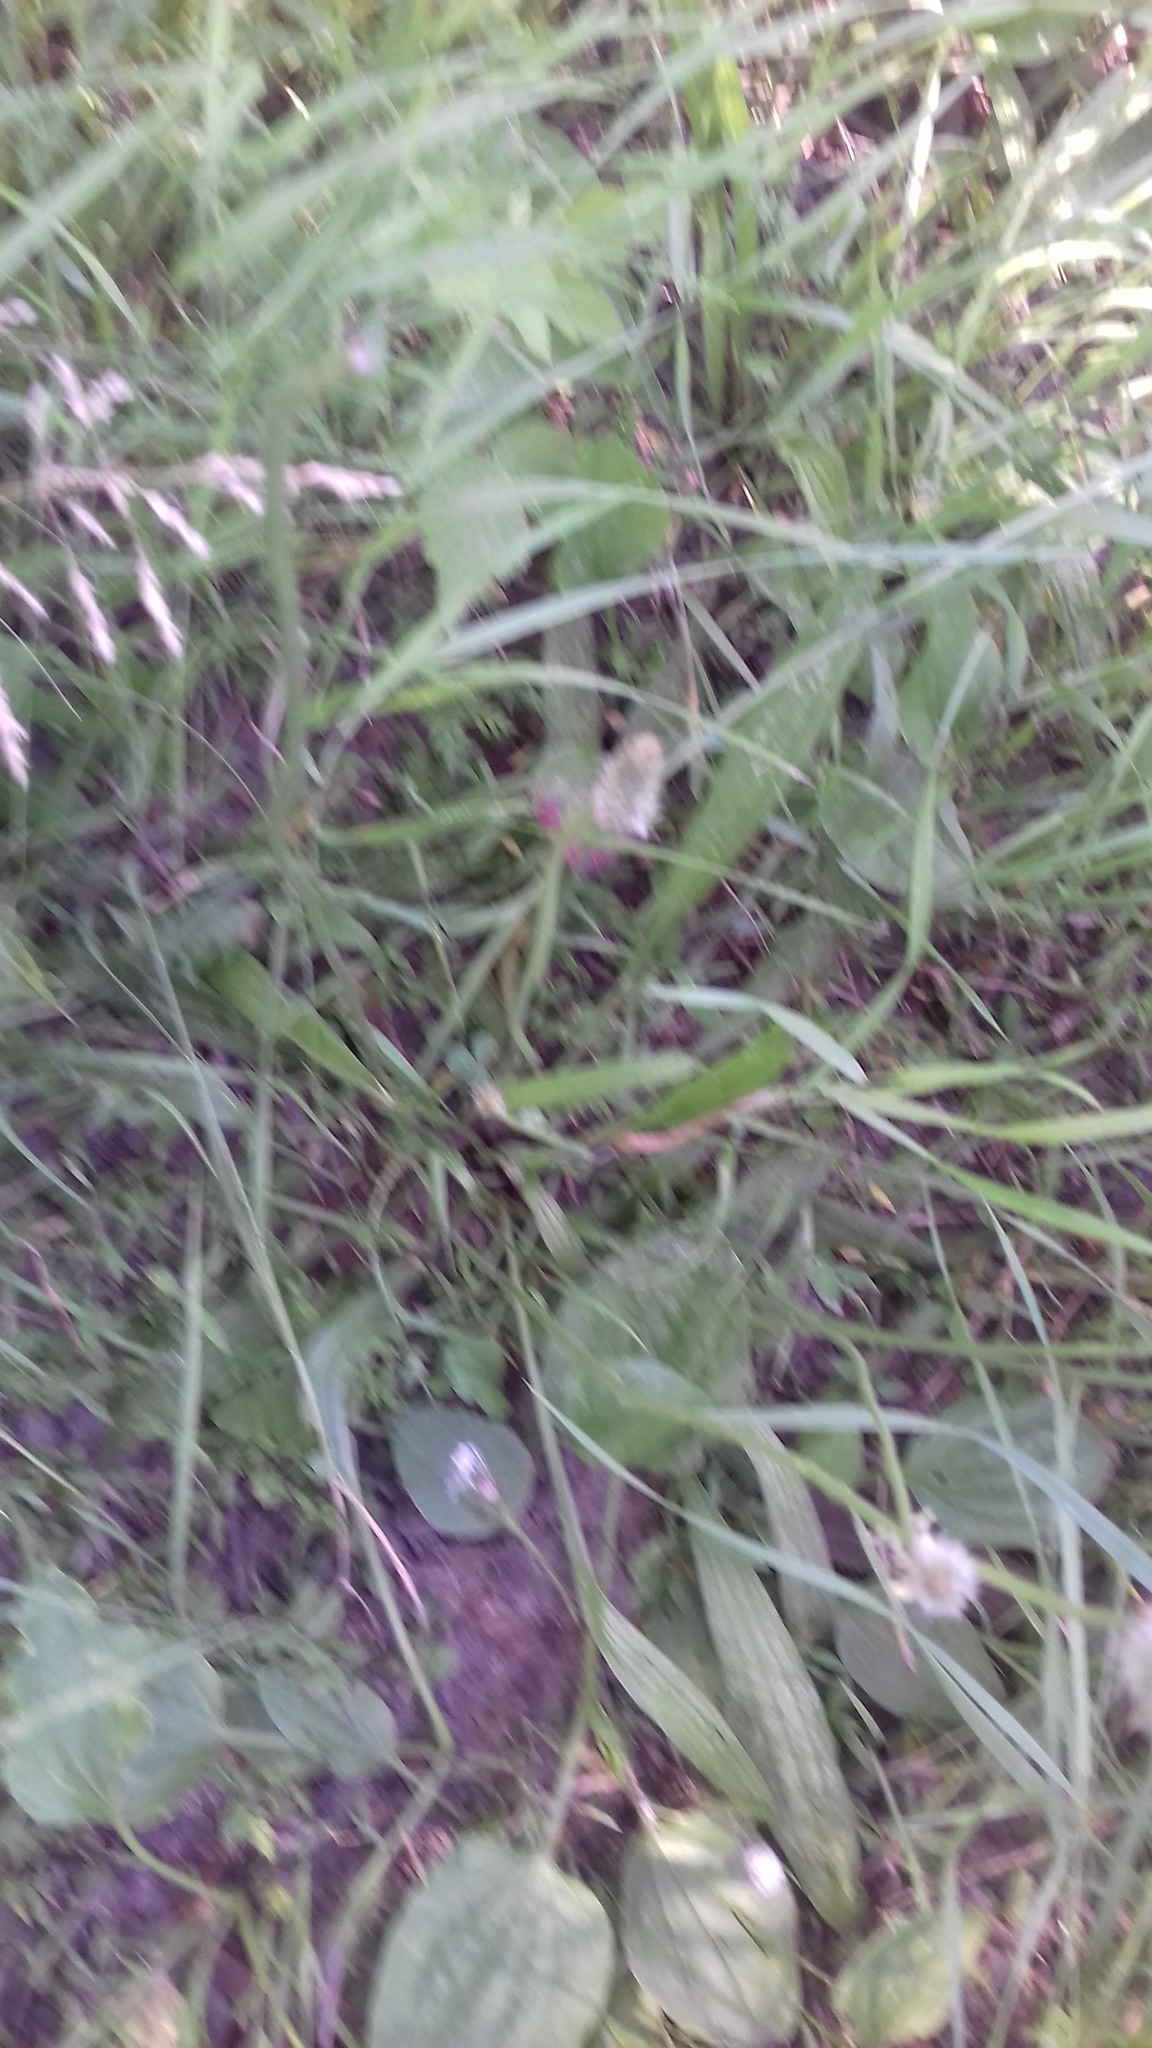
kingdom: Plantae
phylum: Tracheophyta
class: Magnoliopsida
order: Lamiales
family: Plantaginaceae
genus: Plantago
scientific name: Plantago lanceolata
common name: Ribwort plantain
